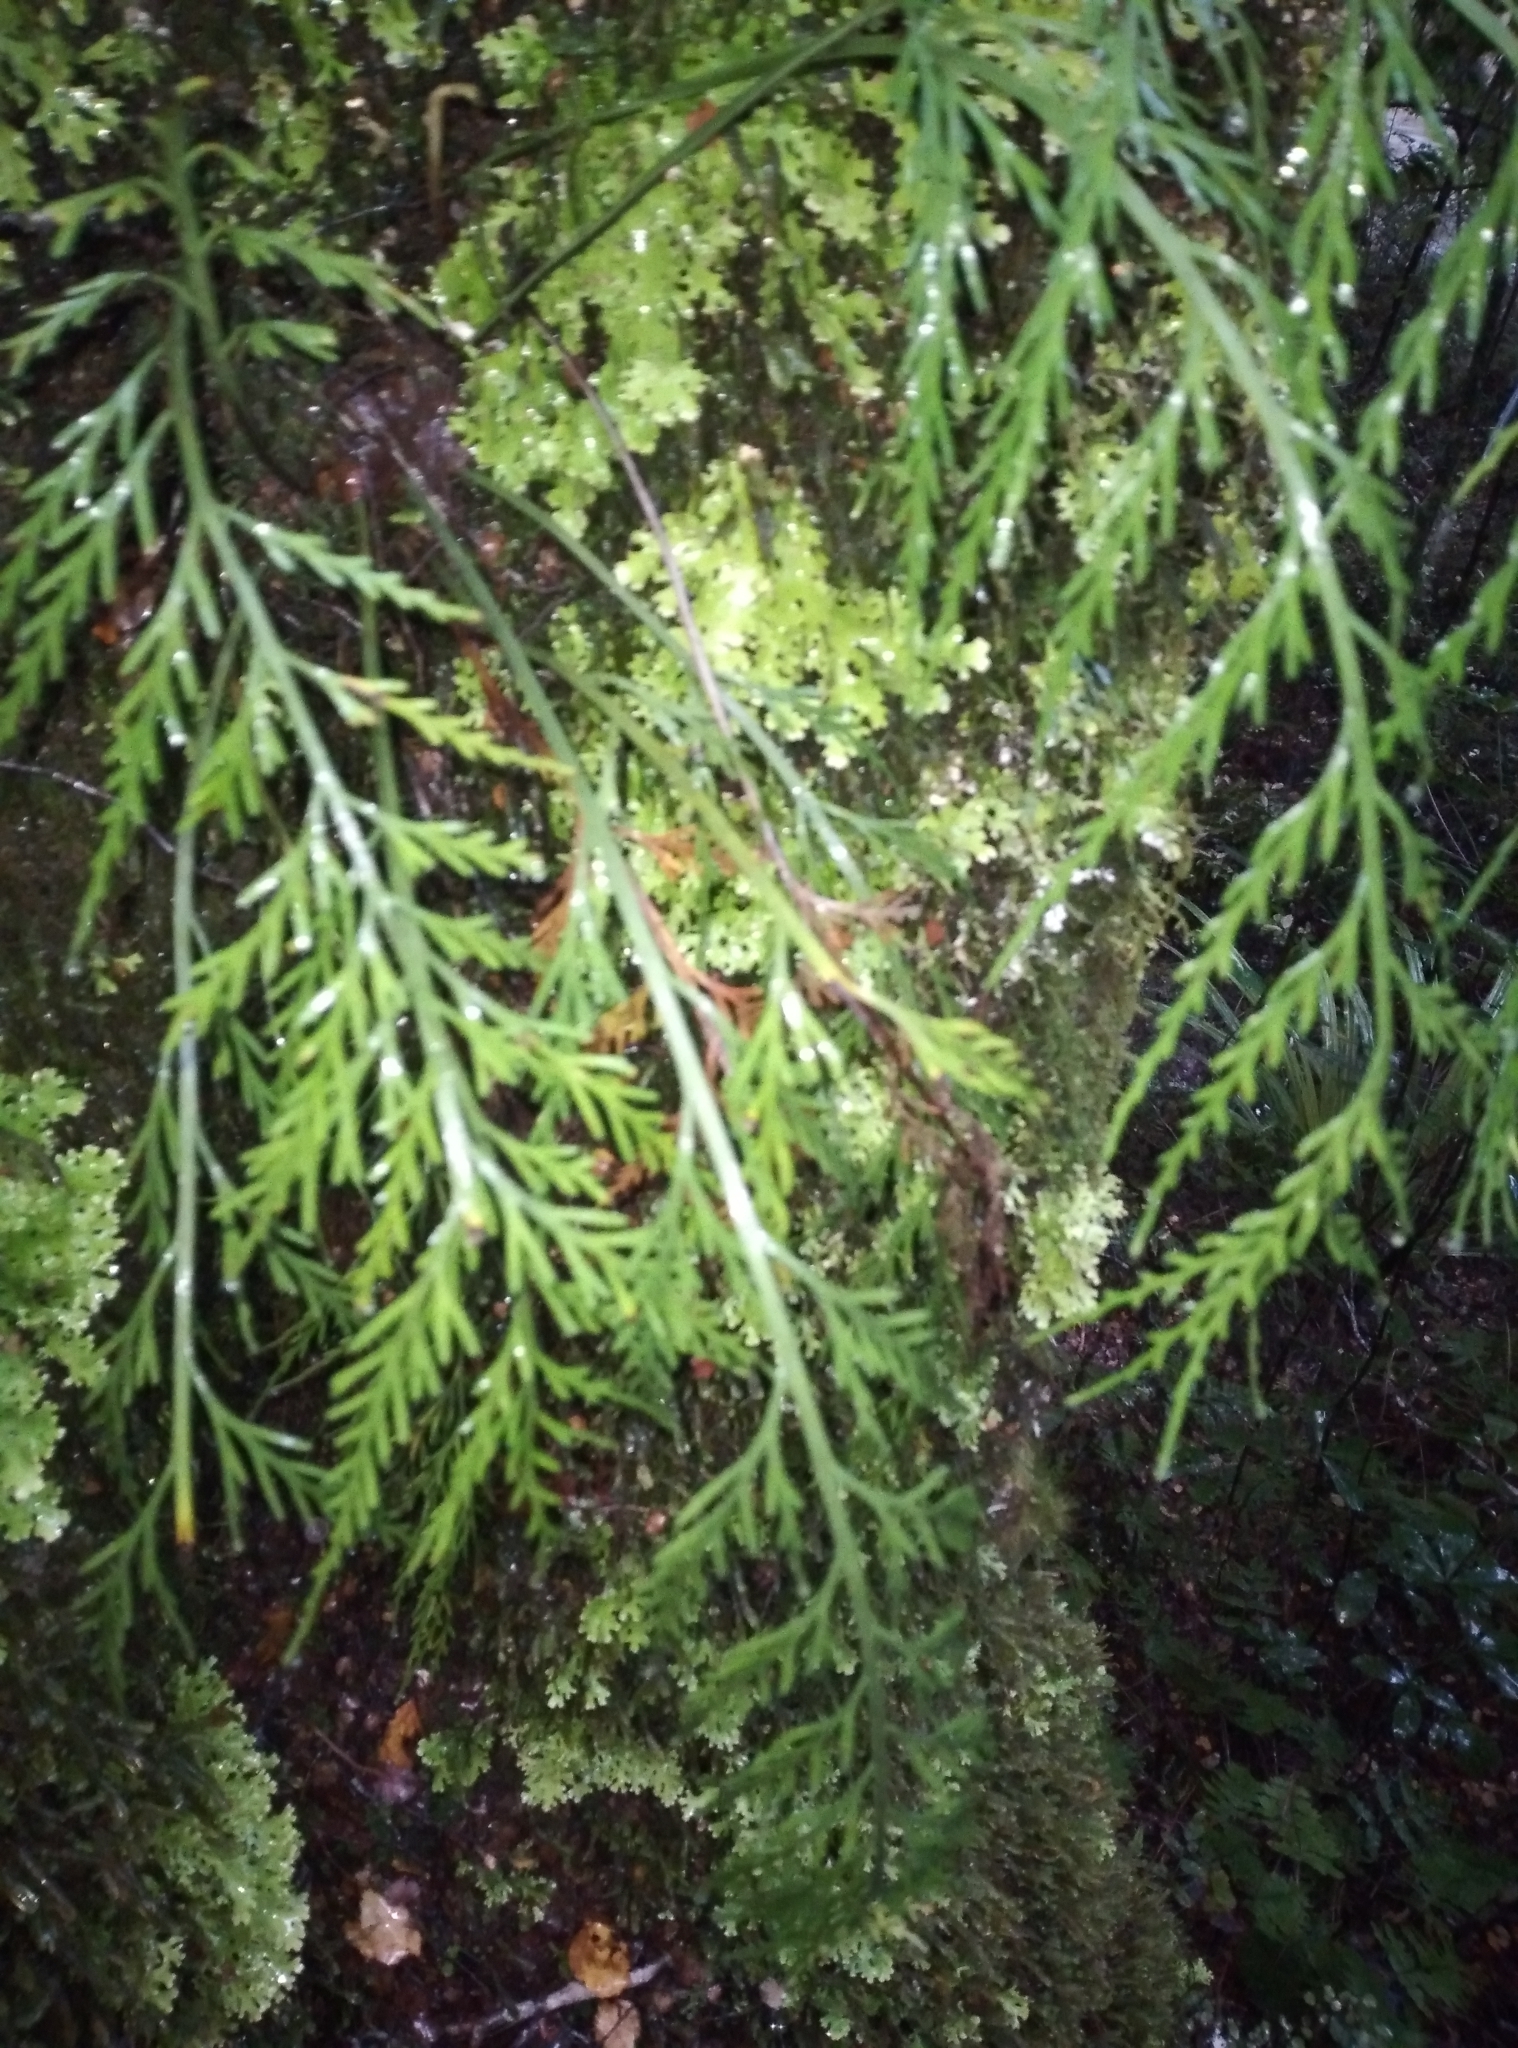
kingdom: Plantae
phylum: Tracheophyta
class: Polypodiopsida
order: Polypodiales
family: Aspleniaceae
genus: Asplenium
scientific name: Asplenium flaccidum
